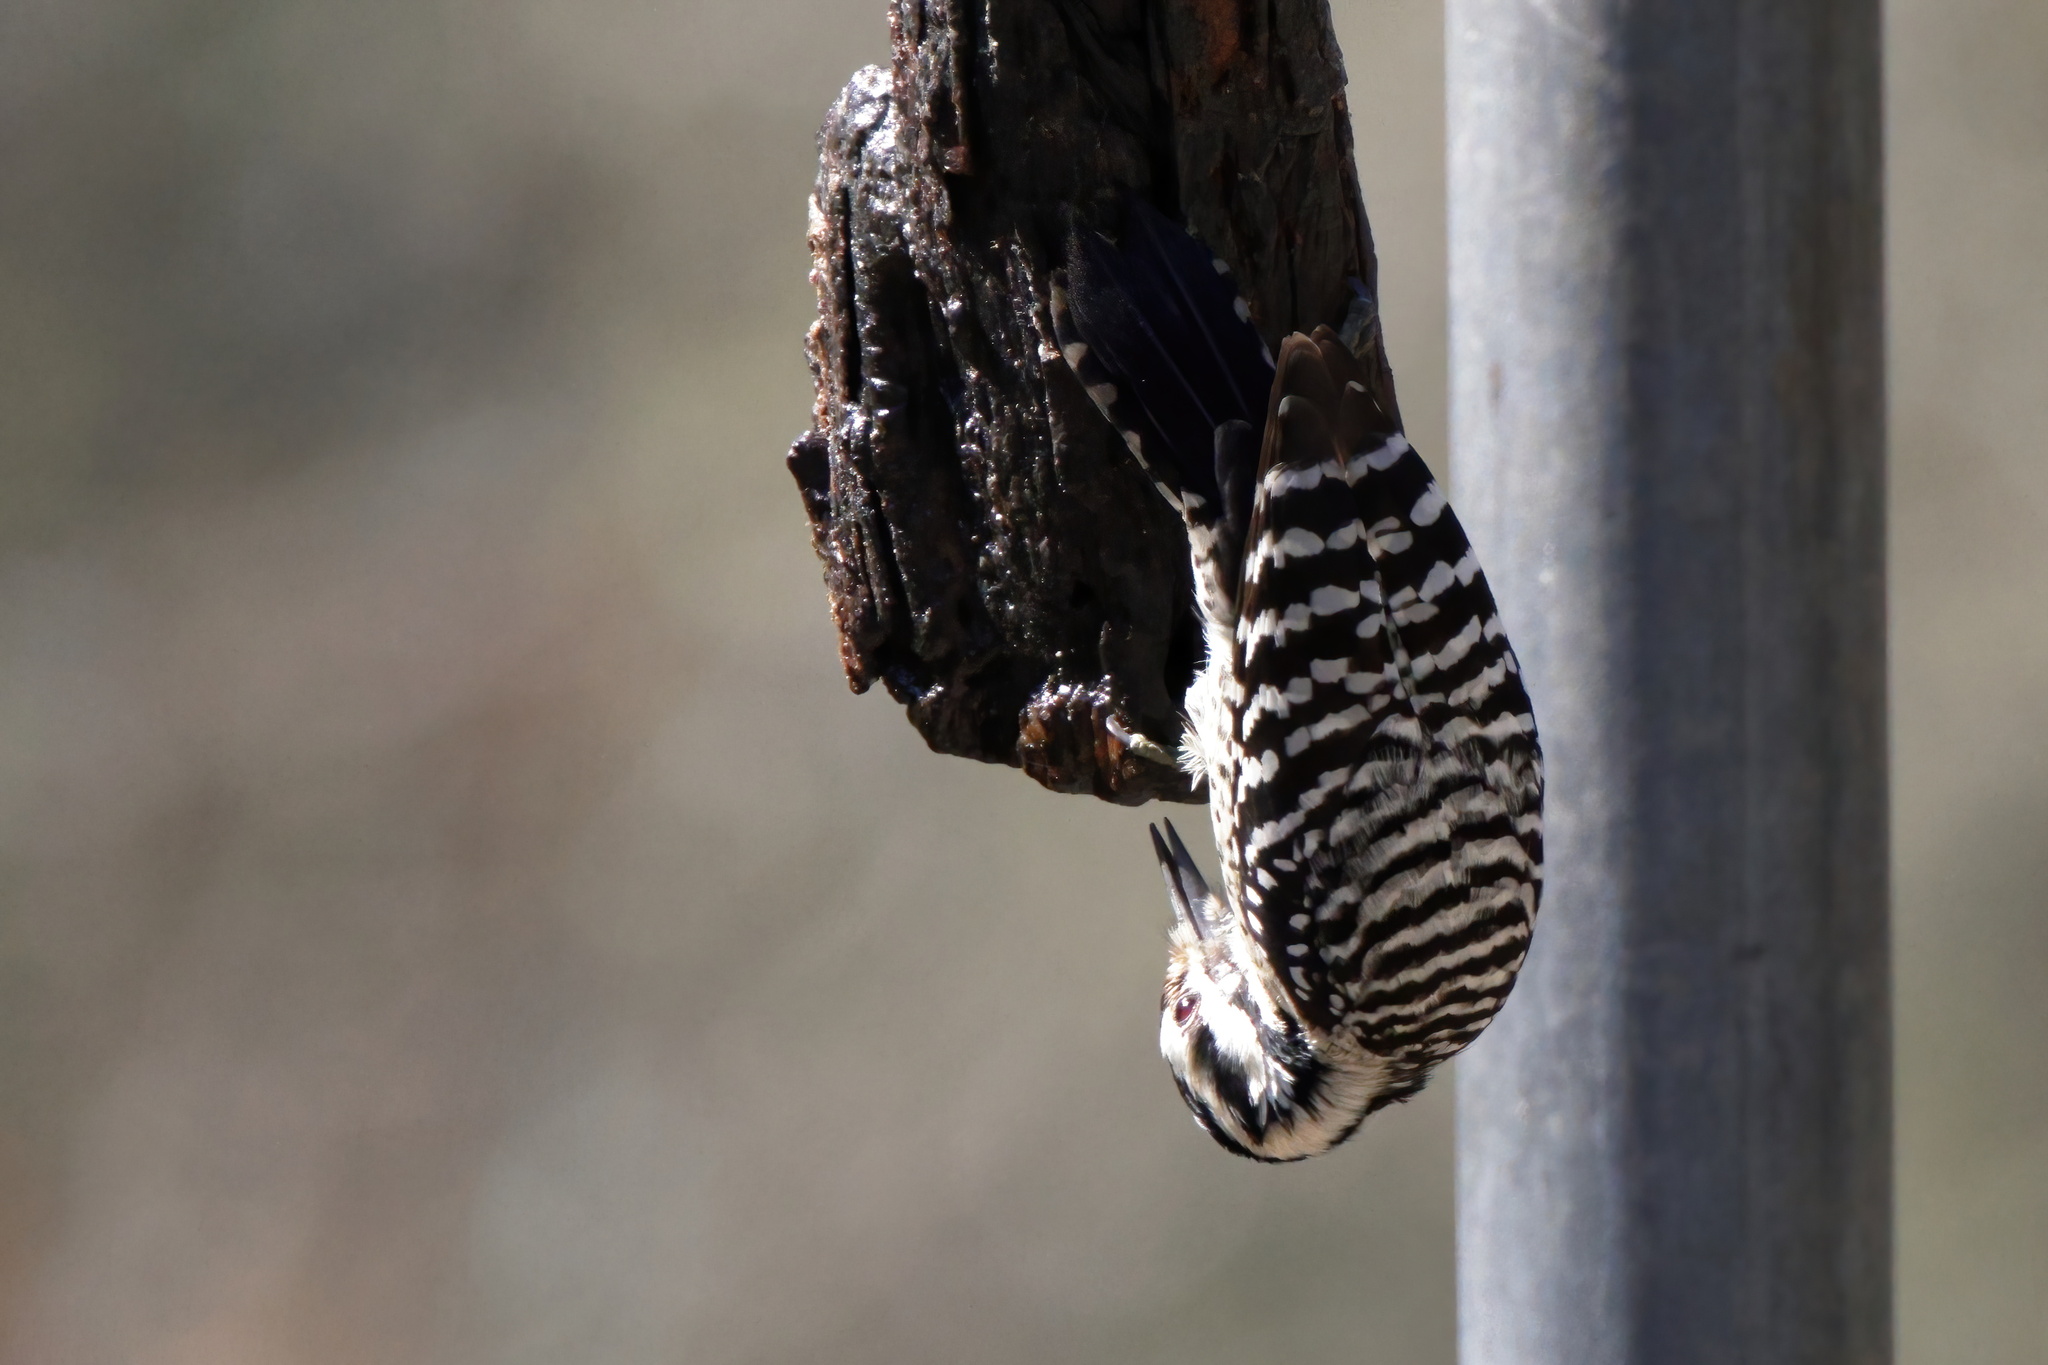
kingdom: Animalia
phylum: Chordata
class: Aves
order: Piciformes
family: Picidae
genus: Dryobates
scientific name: Dryobates scalaris
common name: Ladder-backed woodpecker
